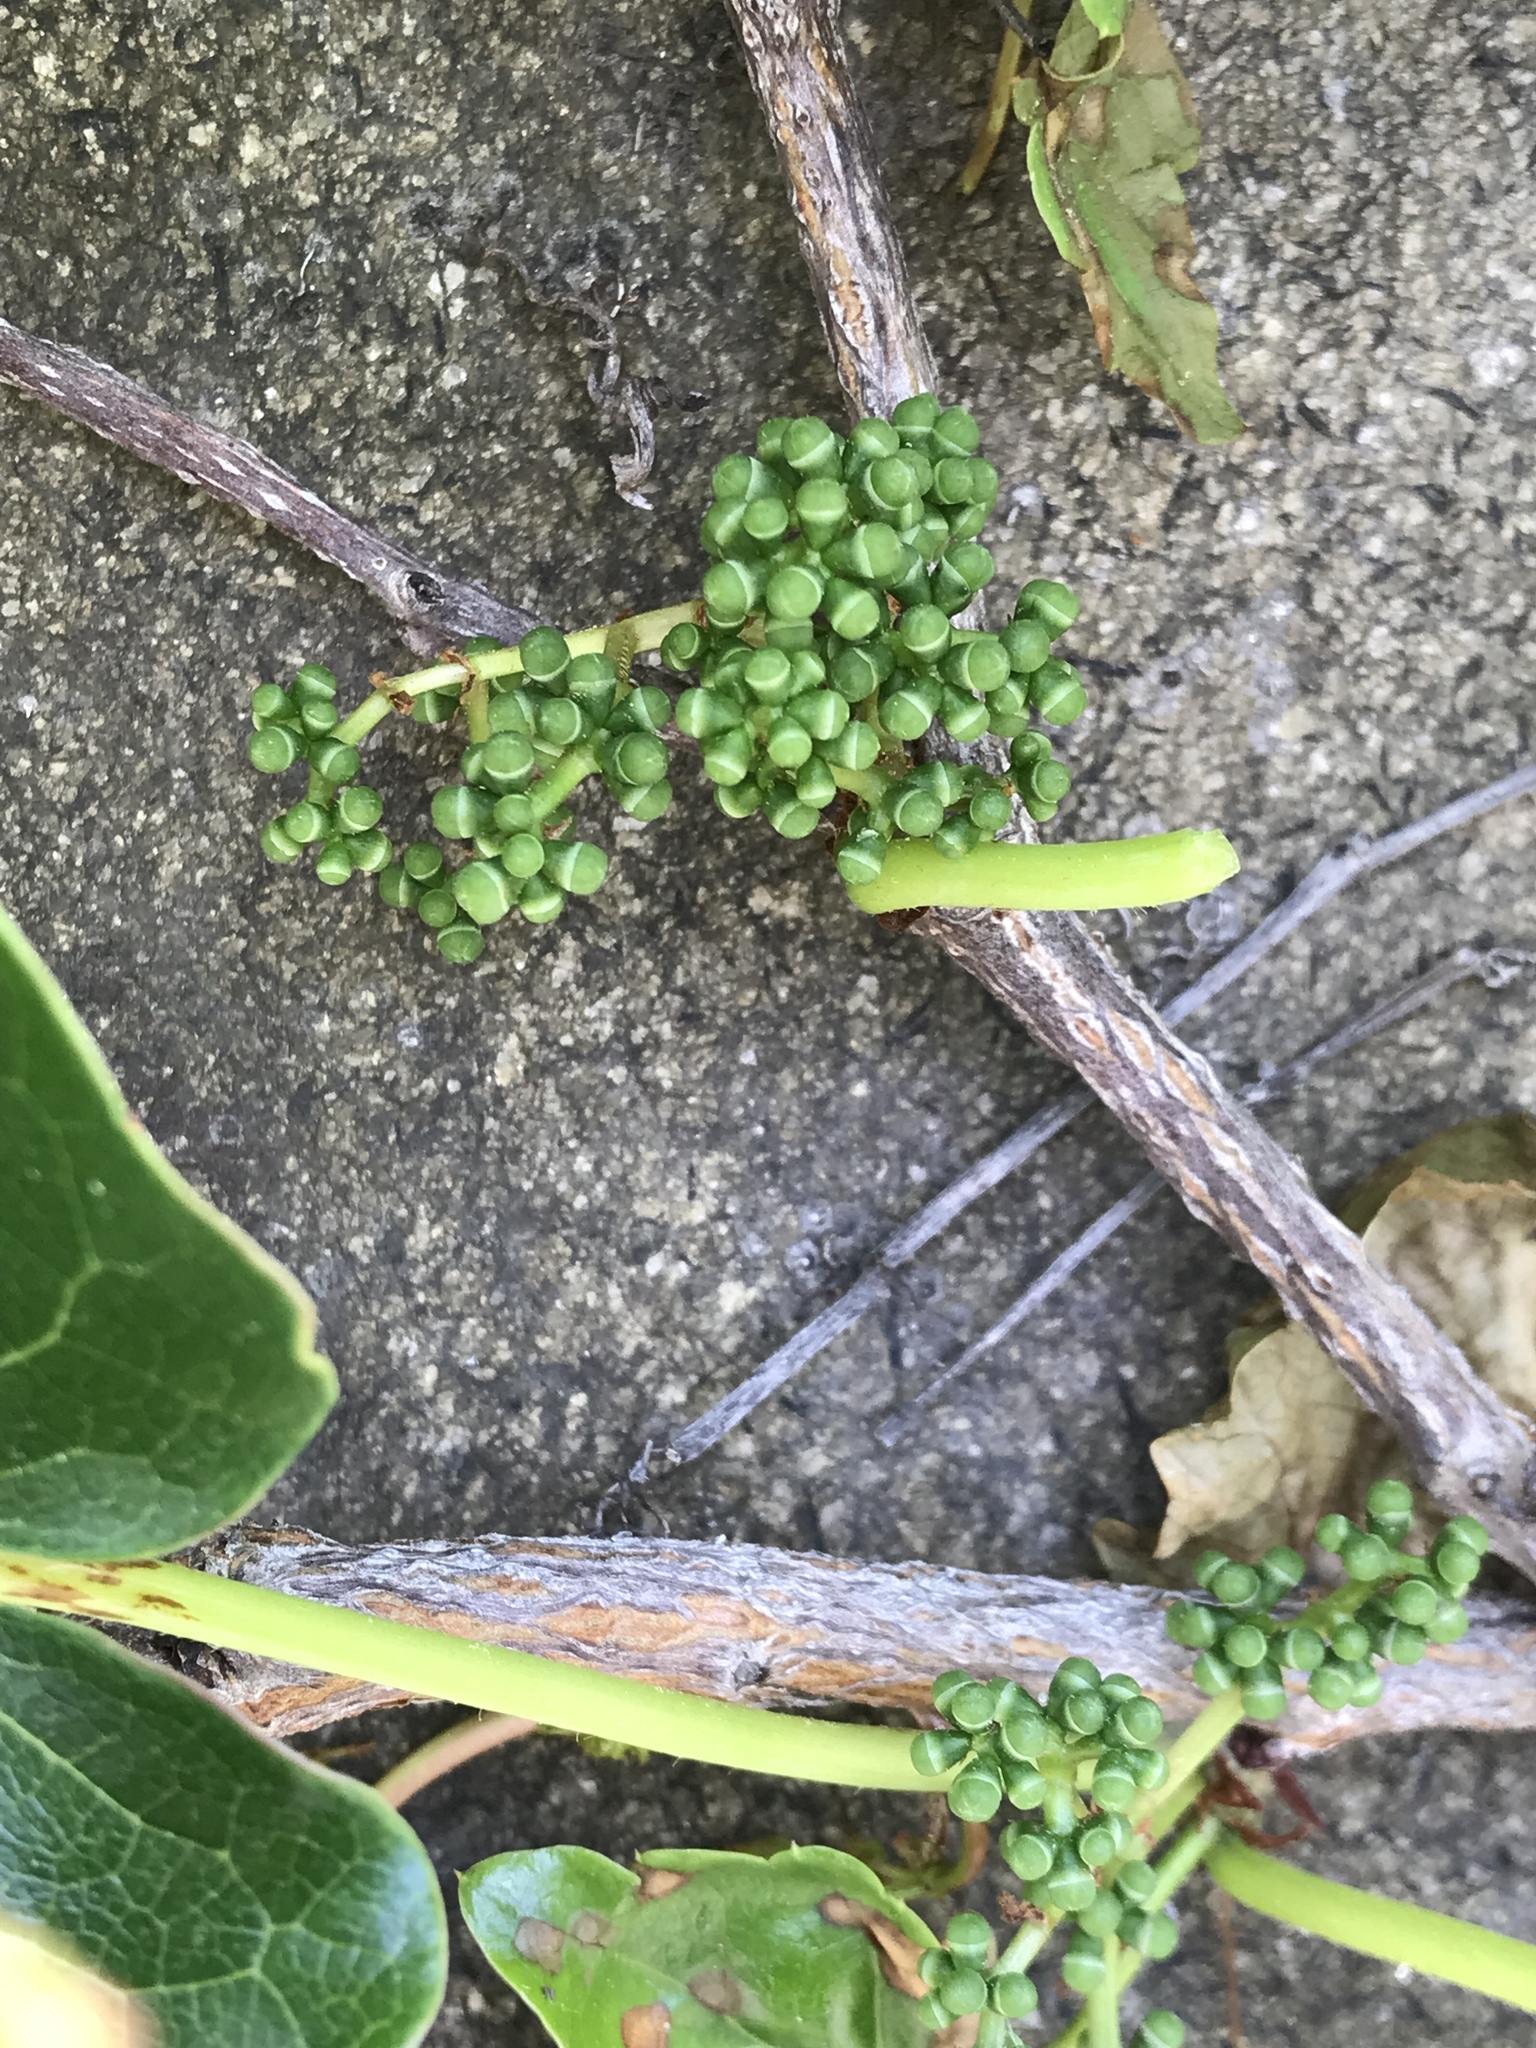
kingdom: Plantae
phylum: Tracheophyta
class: Magnoliopsida
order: Vitales
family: Vitaceae
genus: Parthenocissus
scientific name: Parthenocissus tricuspidata
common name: Boston ivy
